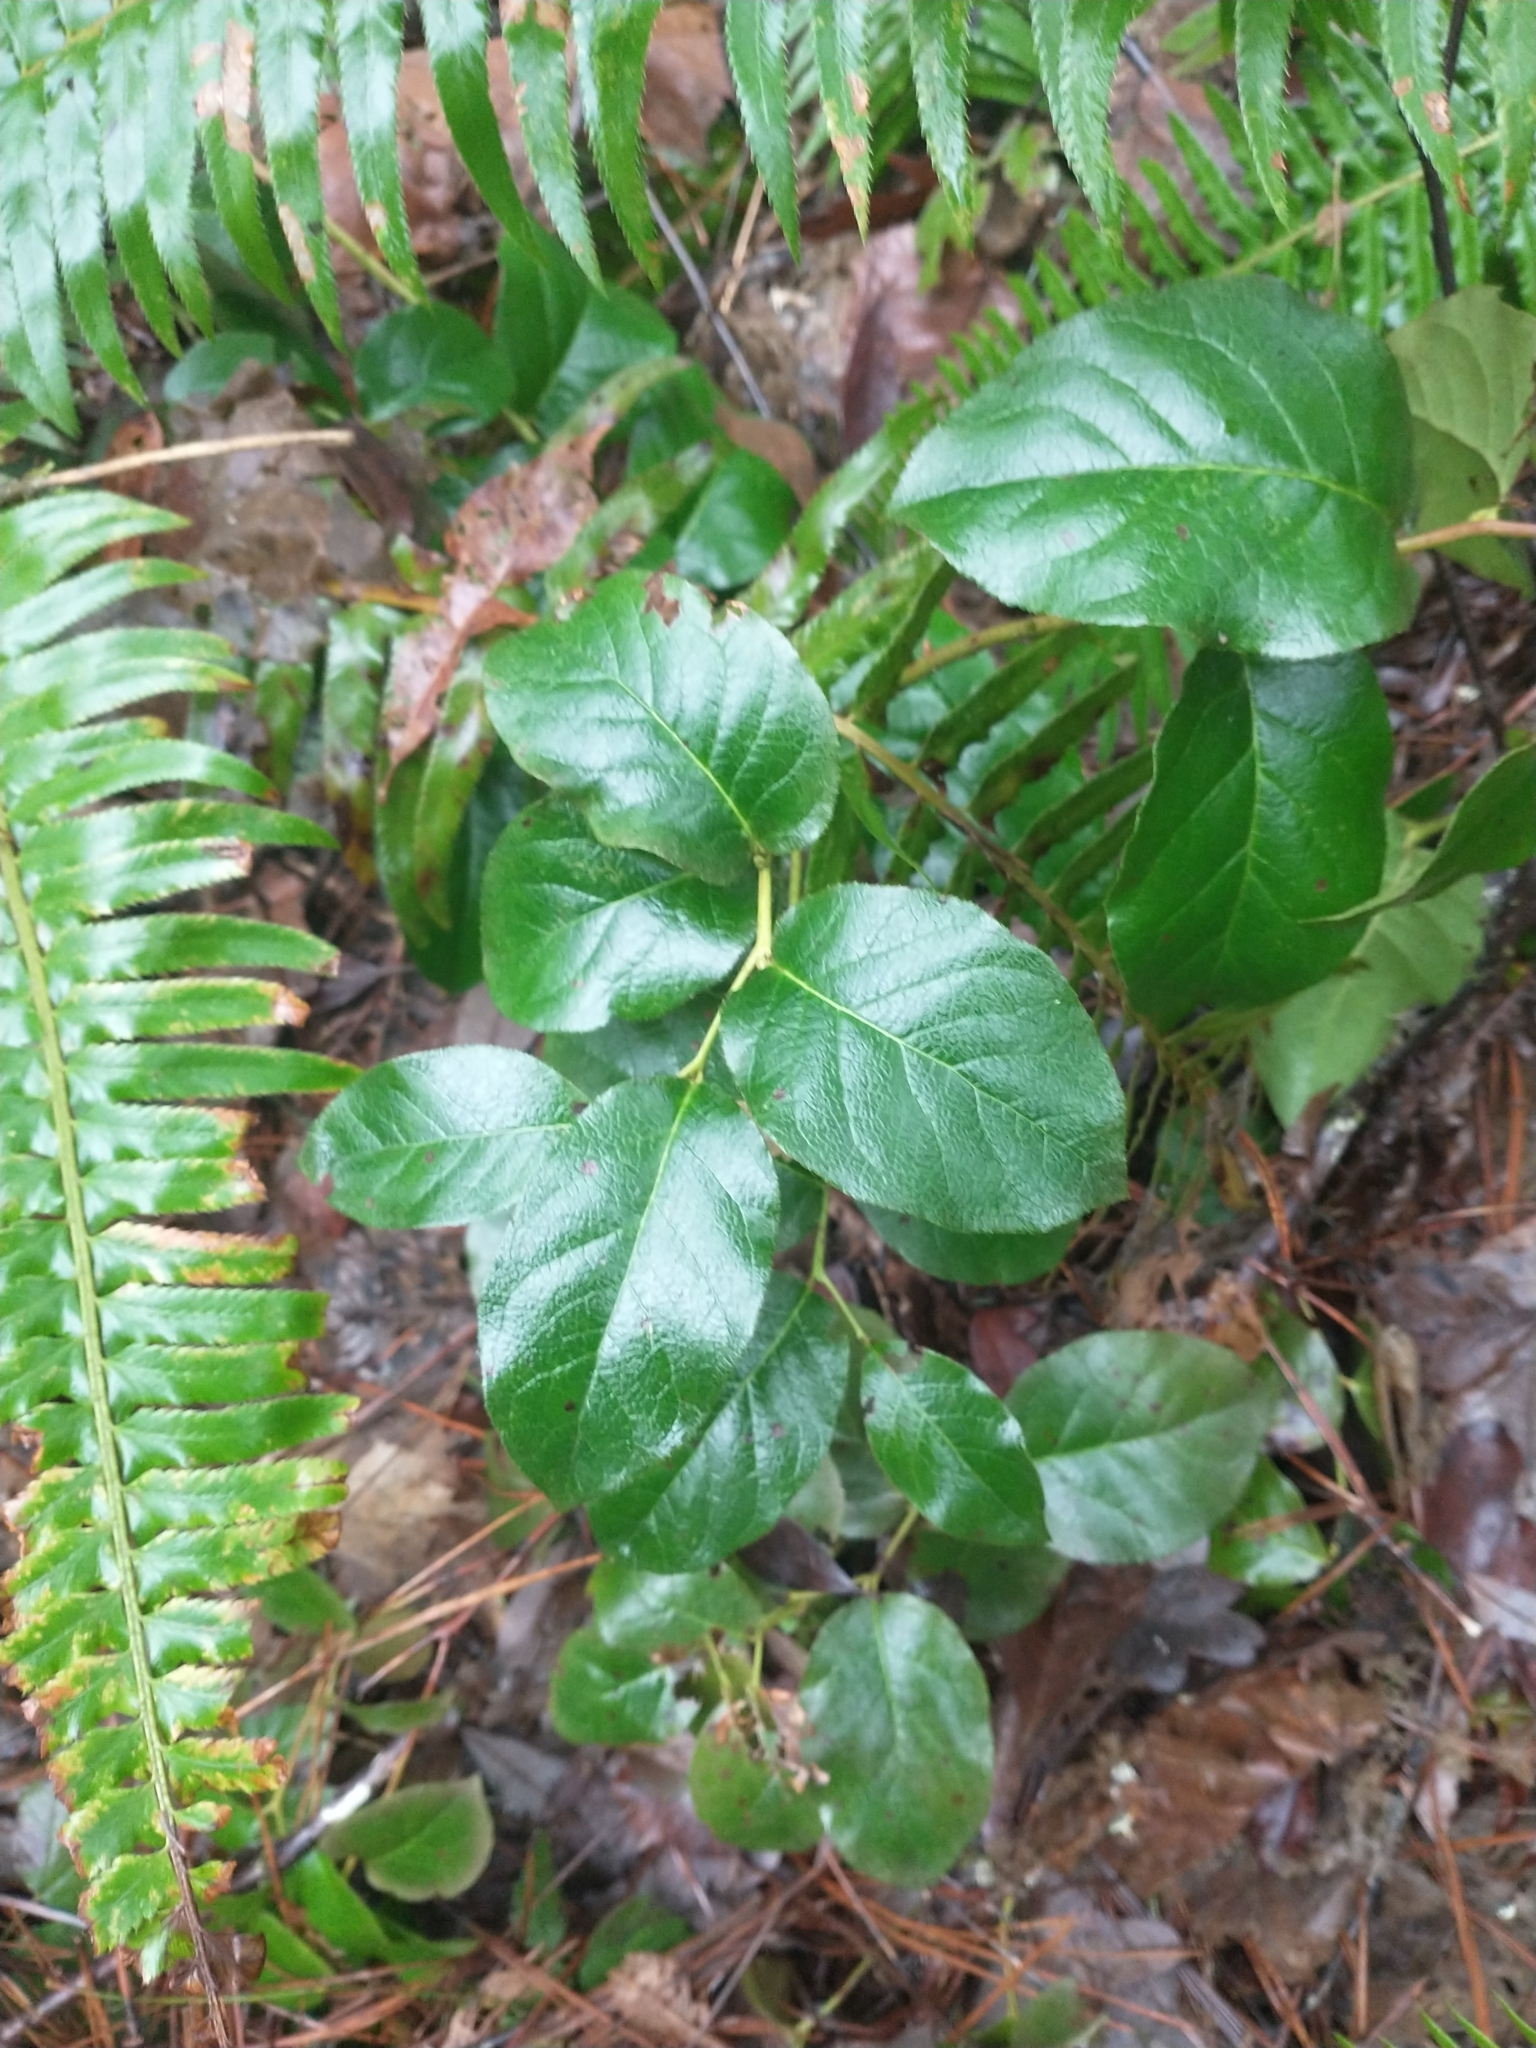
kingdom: Plantae
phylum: Tracheophyta
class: Magnoliopsida
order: Ericales
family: Ericaceae
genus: Gaultheria
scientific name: Gaultheria shallon
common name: Shallon
